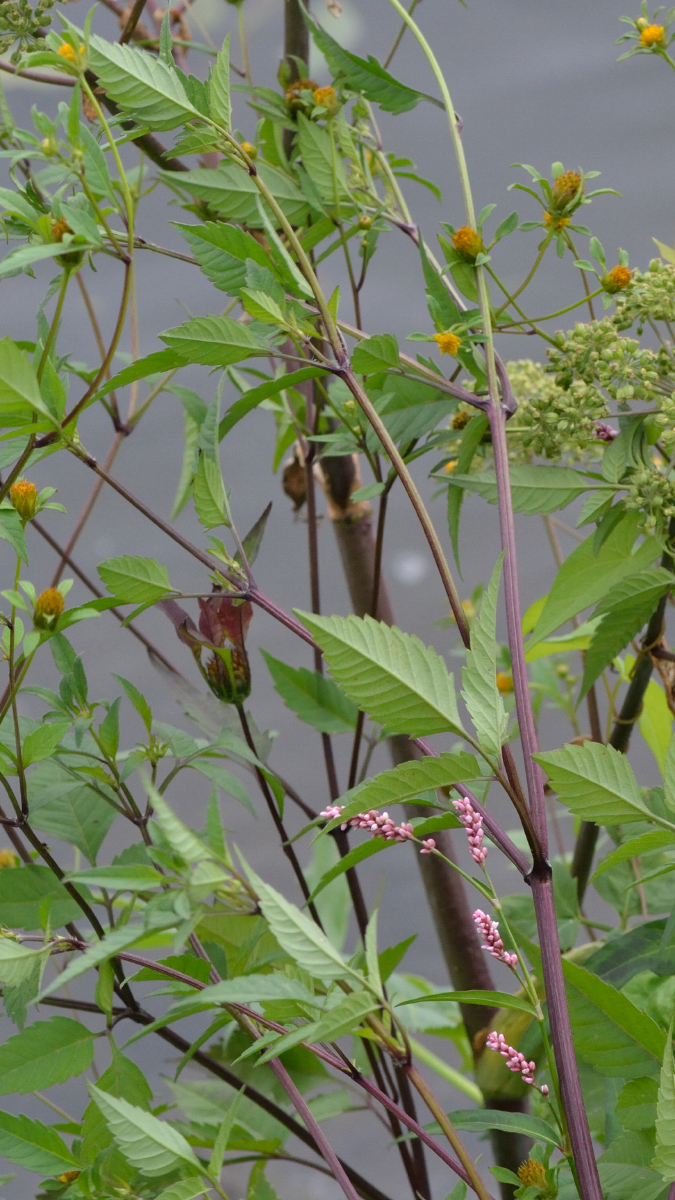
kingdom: Plantae
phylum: Tracheophyta
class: Magnoliopsida
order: Apiales
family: Apiaceae
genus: Angelica
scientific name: Angelica archangelica
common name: Garden angelica
